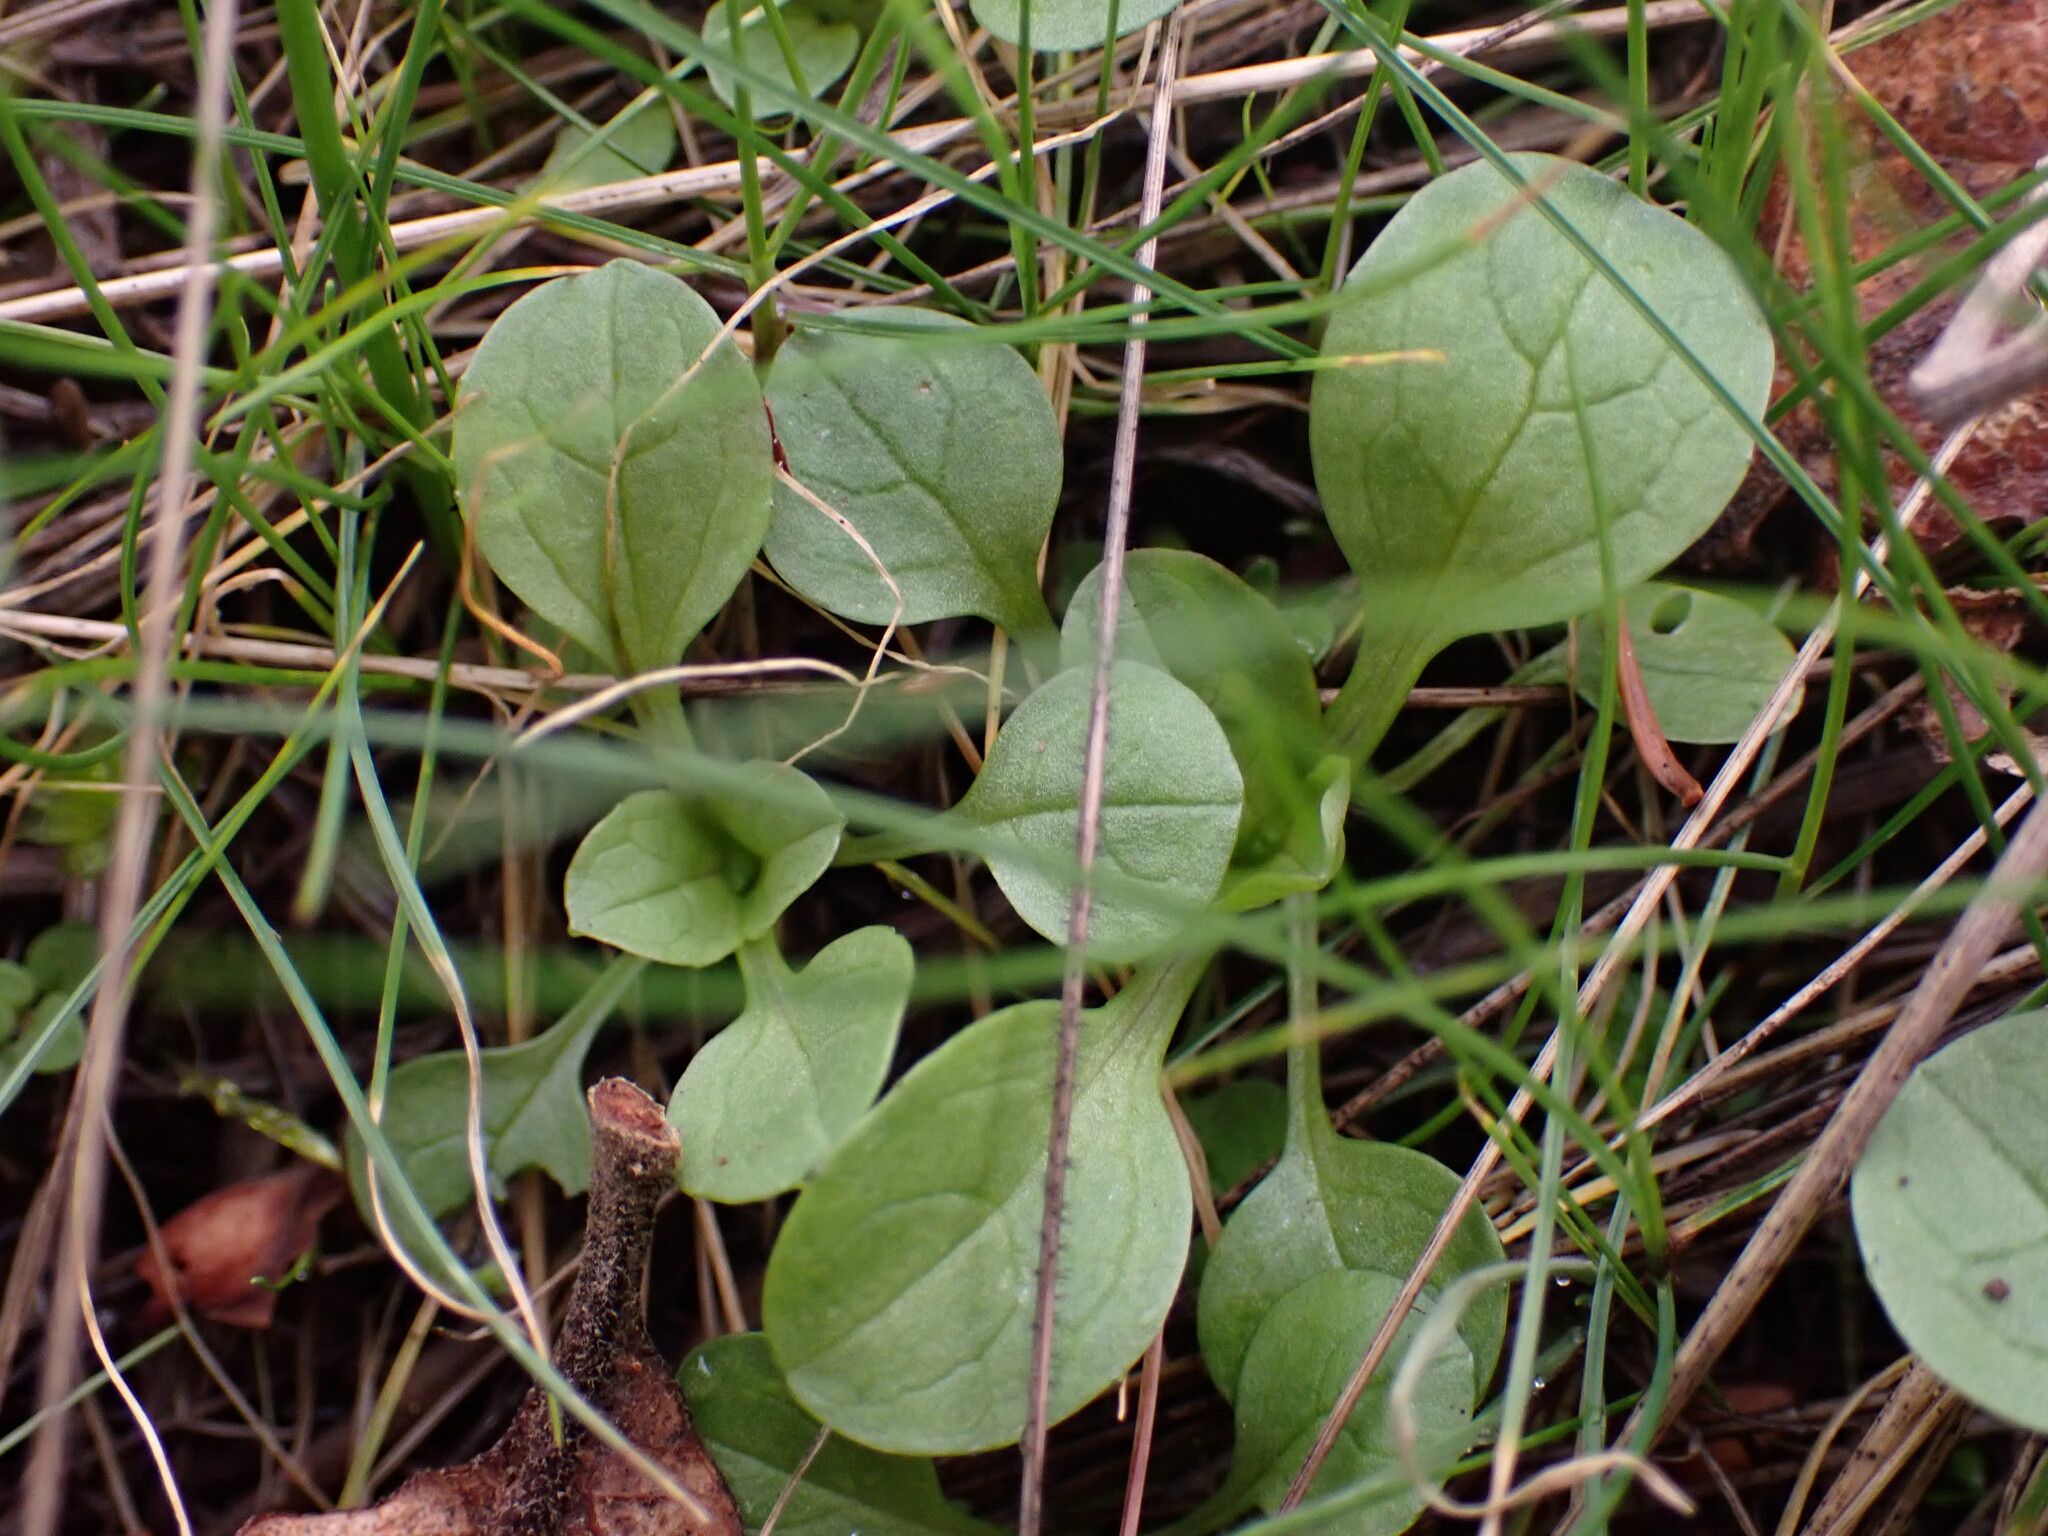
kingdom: Plantae
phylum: Tracheophyta
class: Magnoliopsida
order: Dipsacales
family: Caprifoliaceae
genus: Plectritis
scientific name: Plectritis congesta
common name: Pink plectritis
